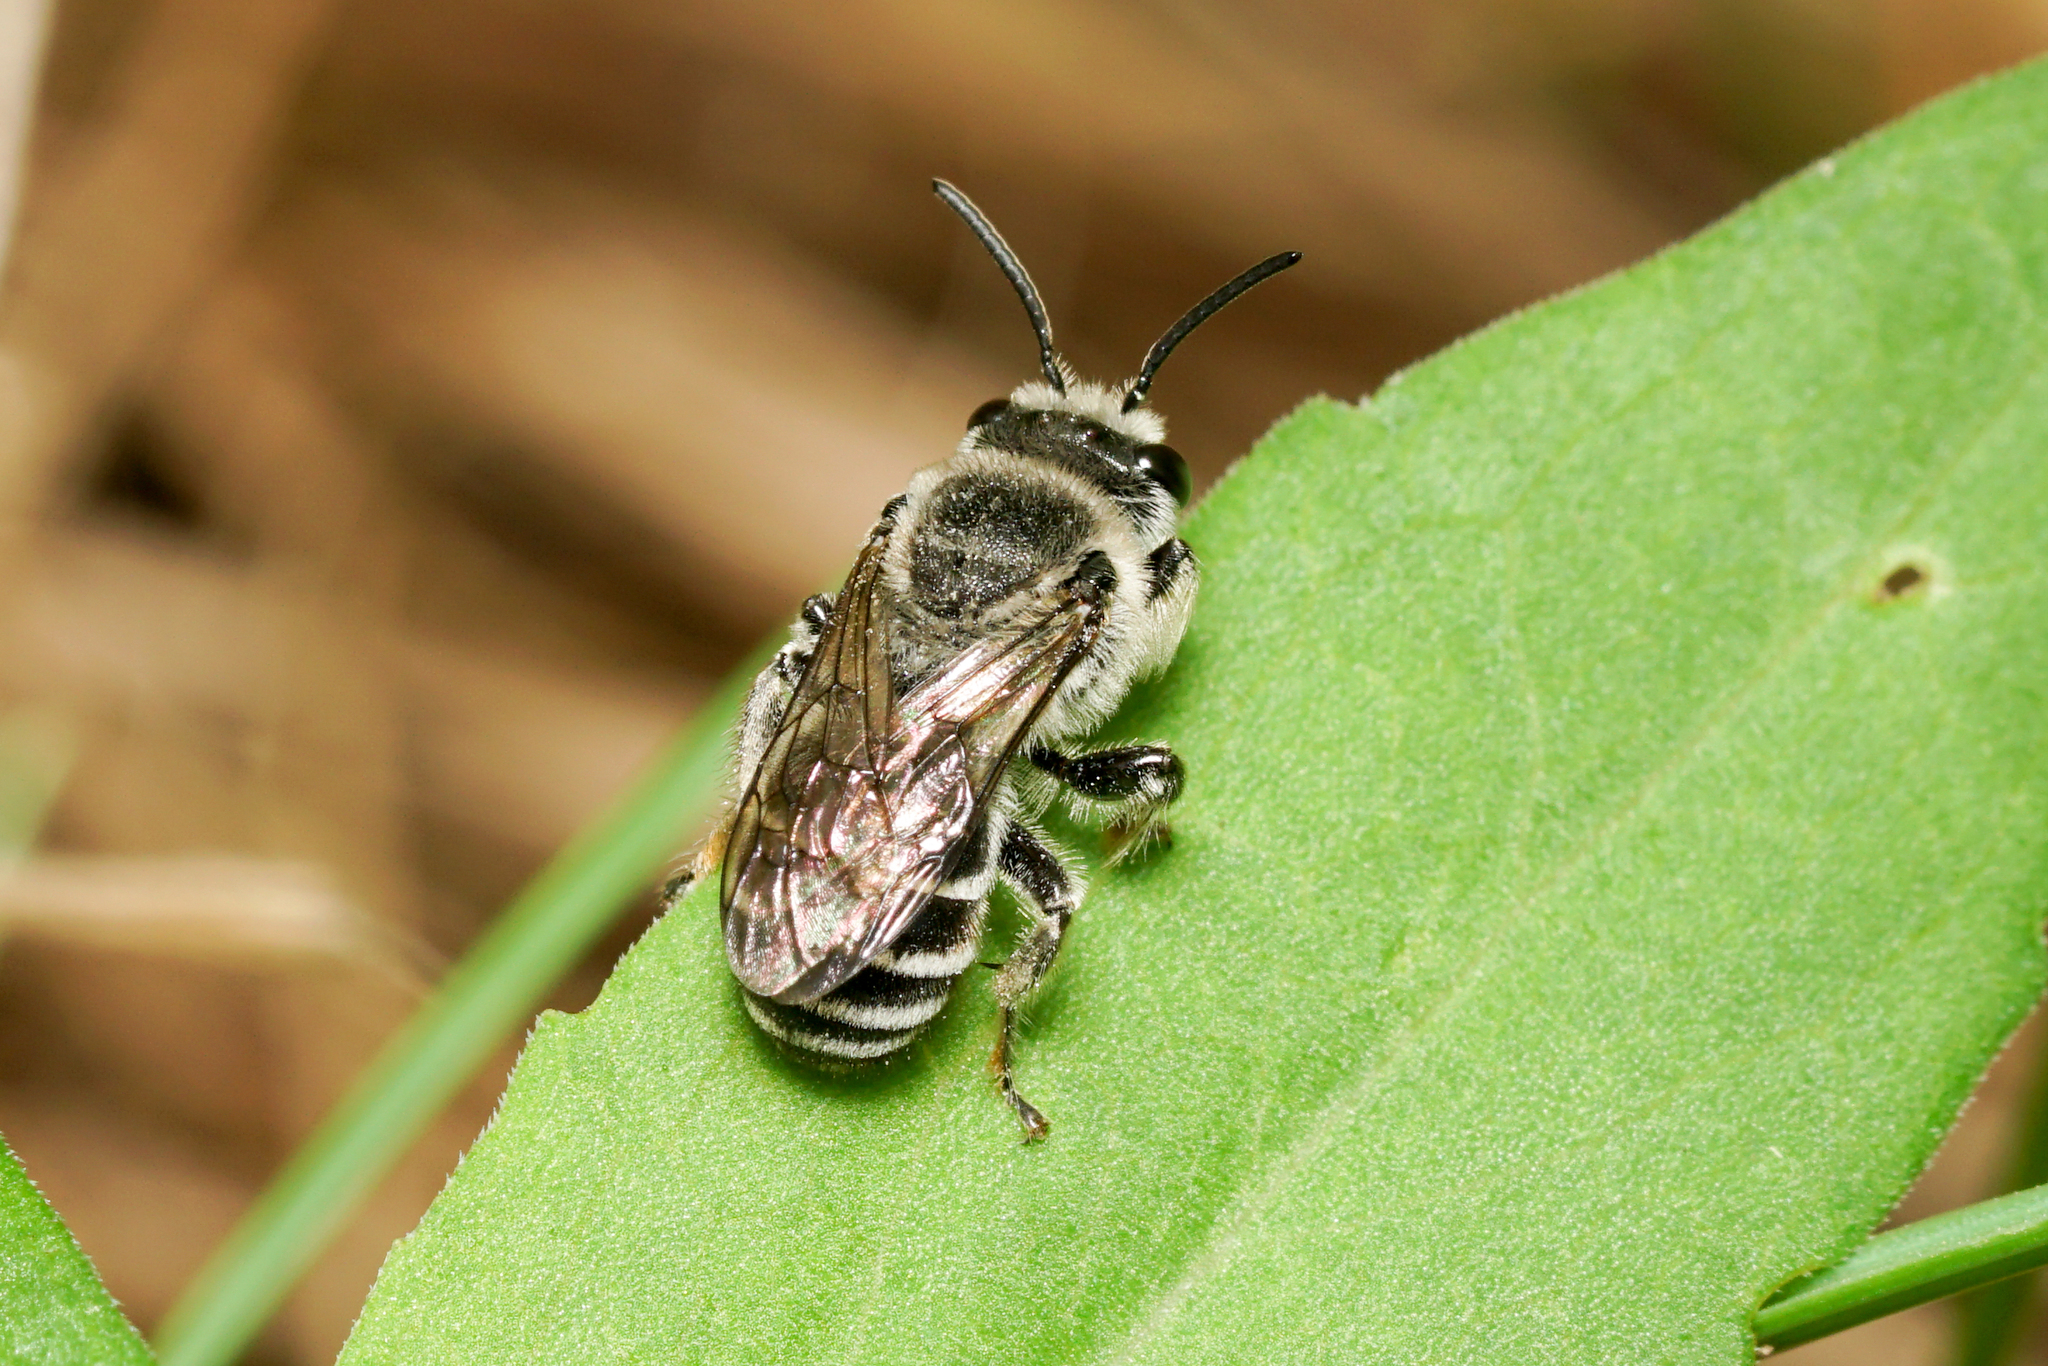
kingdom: Animalia
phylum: Arthropoda
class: Insecta
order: Hymenoptera
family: Colletidae
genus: Colletes
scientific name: Colletes latitarsis
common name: Broad-footed cellophane bee
